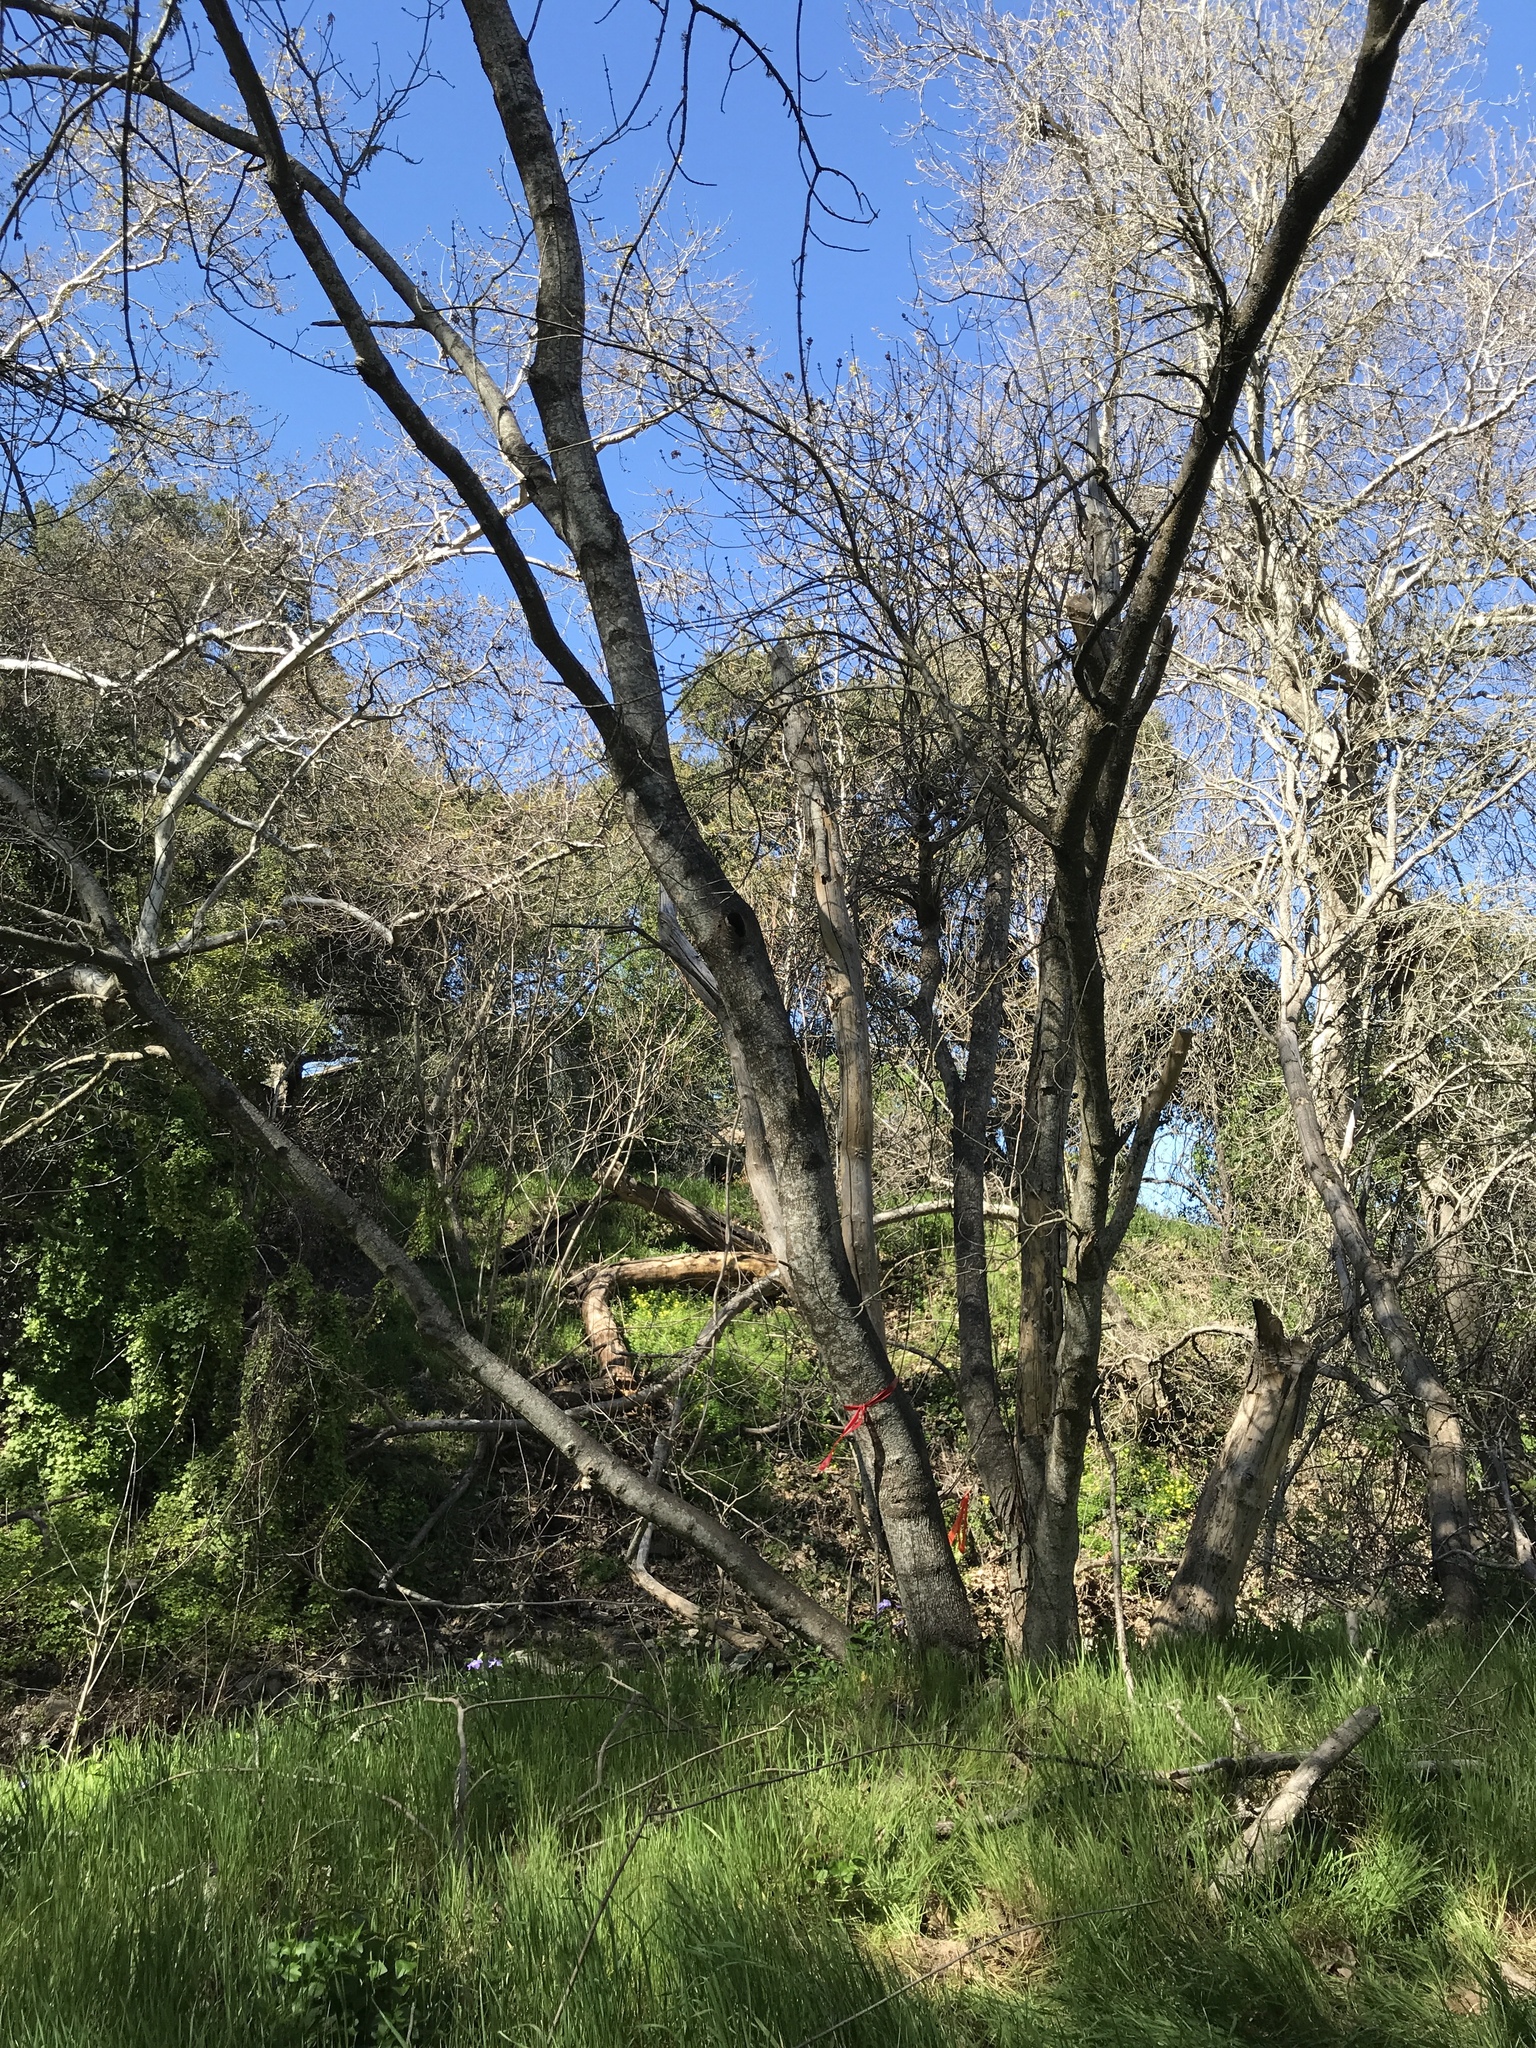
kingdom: Plantae
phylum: Tracheophyta
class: Magnoliopsida
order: Sapindales
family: Sapindaceae
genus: Acer
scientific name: Acer negundo
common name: Ashleaf maple
